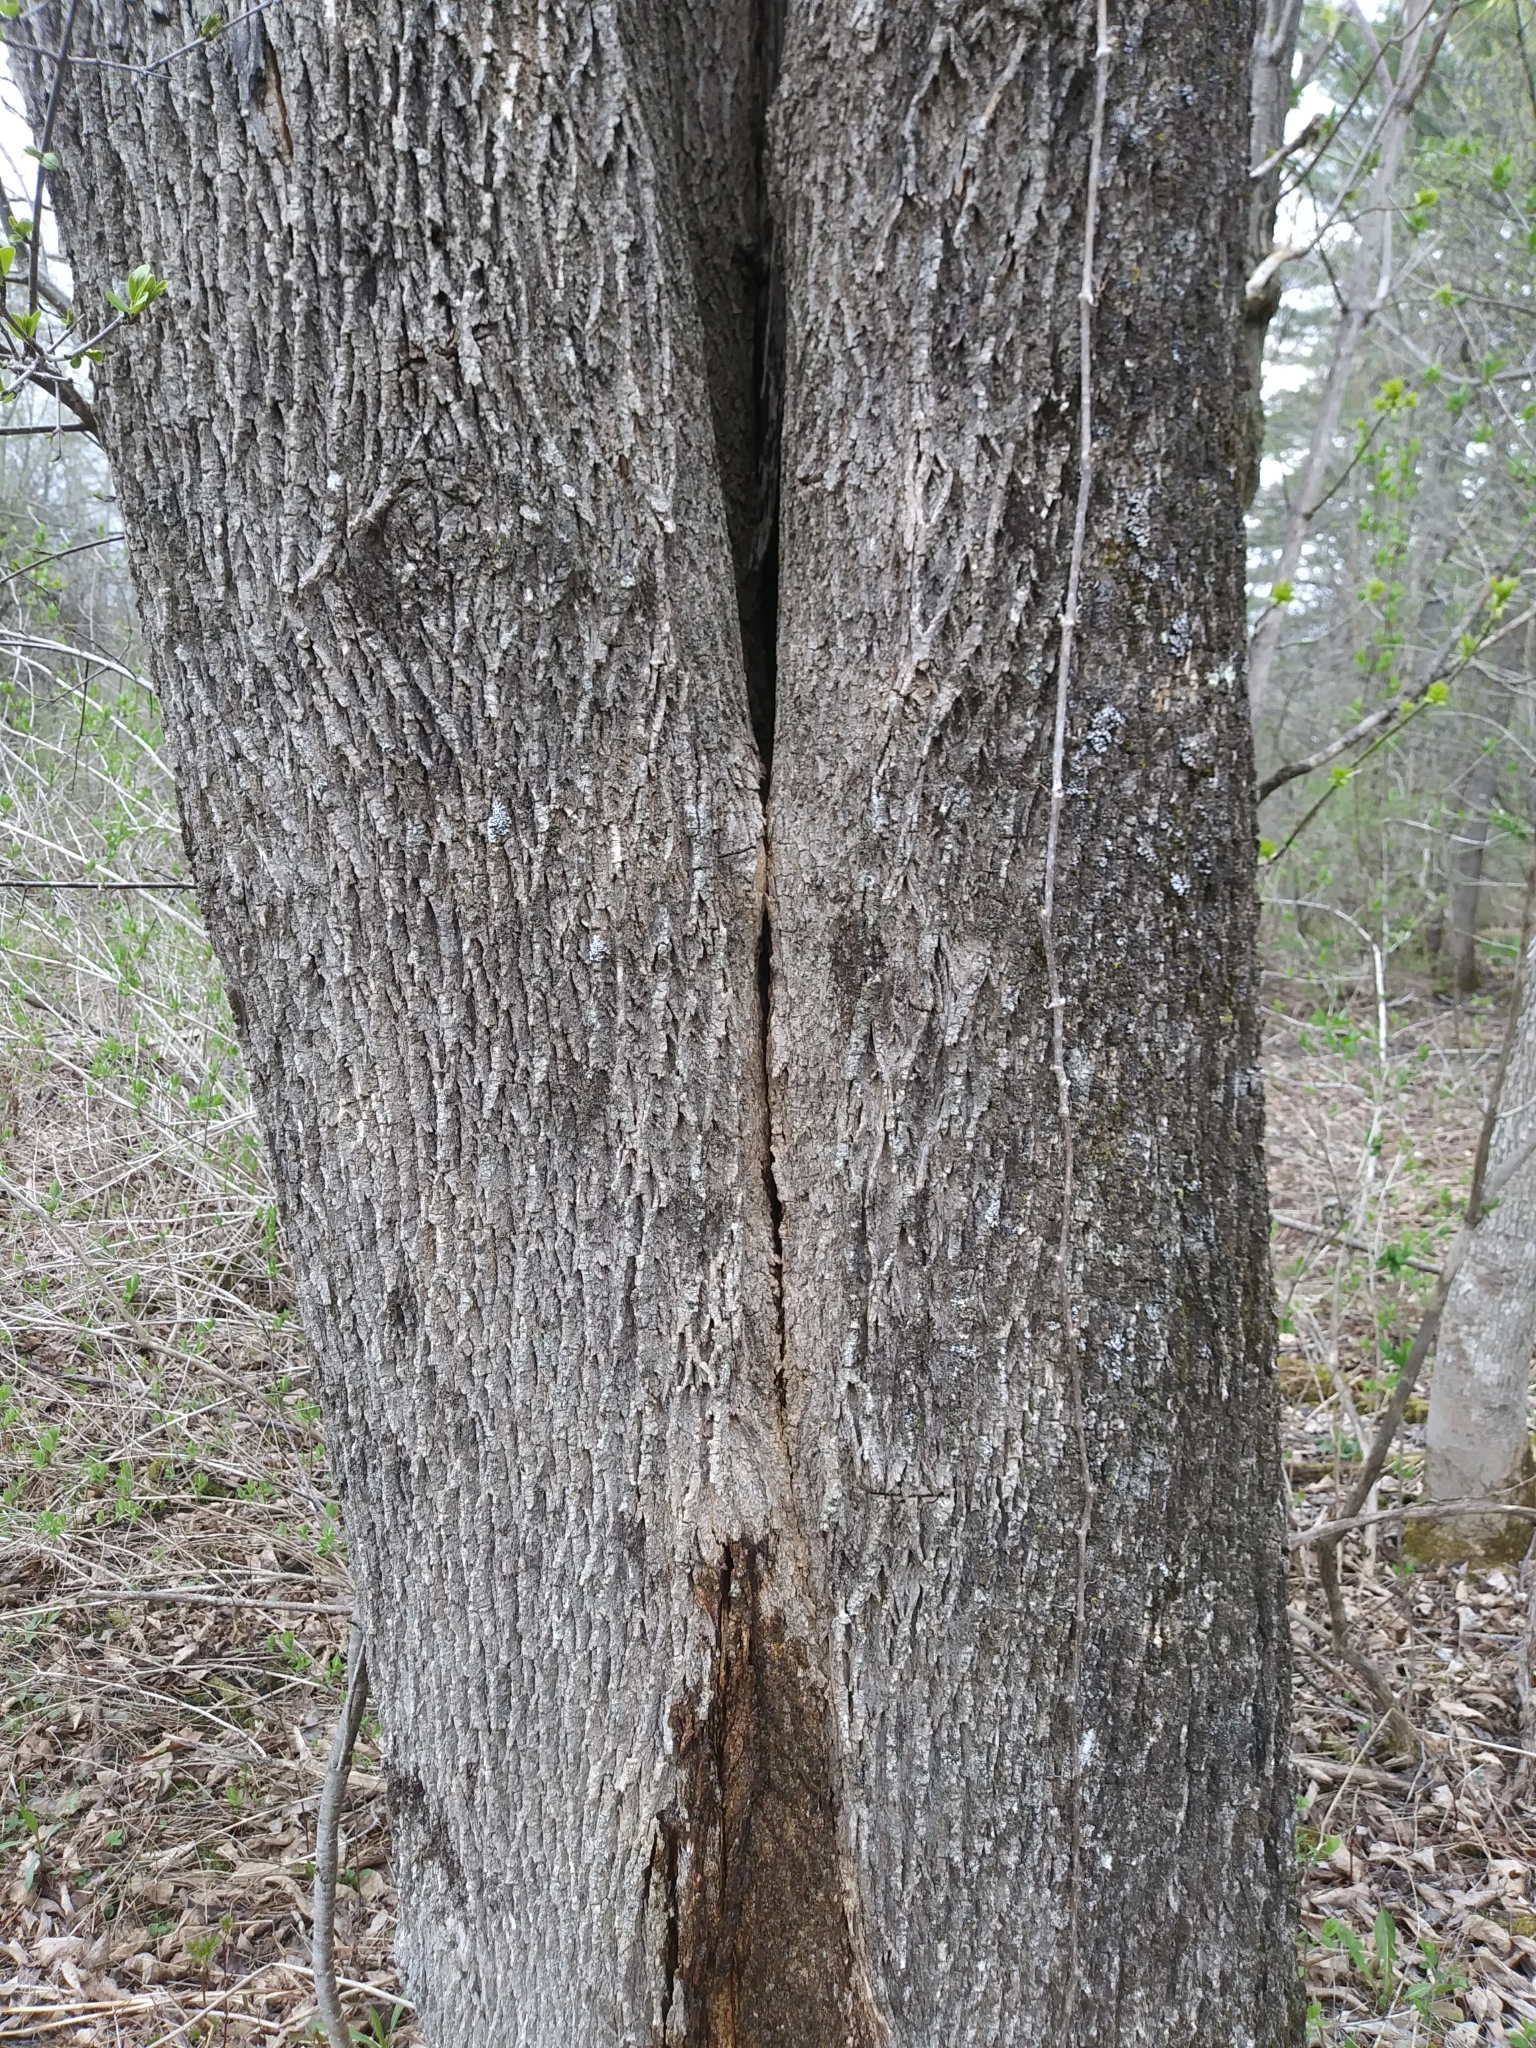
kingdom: Plantae
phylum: Tracheophyta
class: Magnoliopsida
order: Lamiales
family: Oleaceae
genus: Fraxinus
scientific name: Fraxinus pennsylvanica
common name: Green ash
